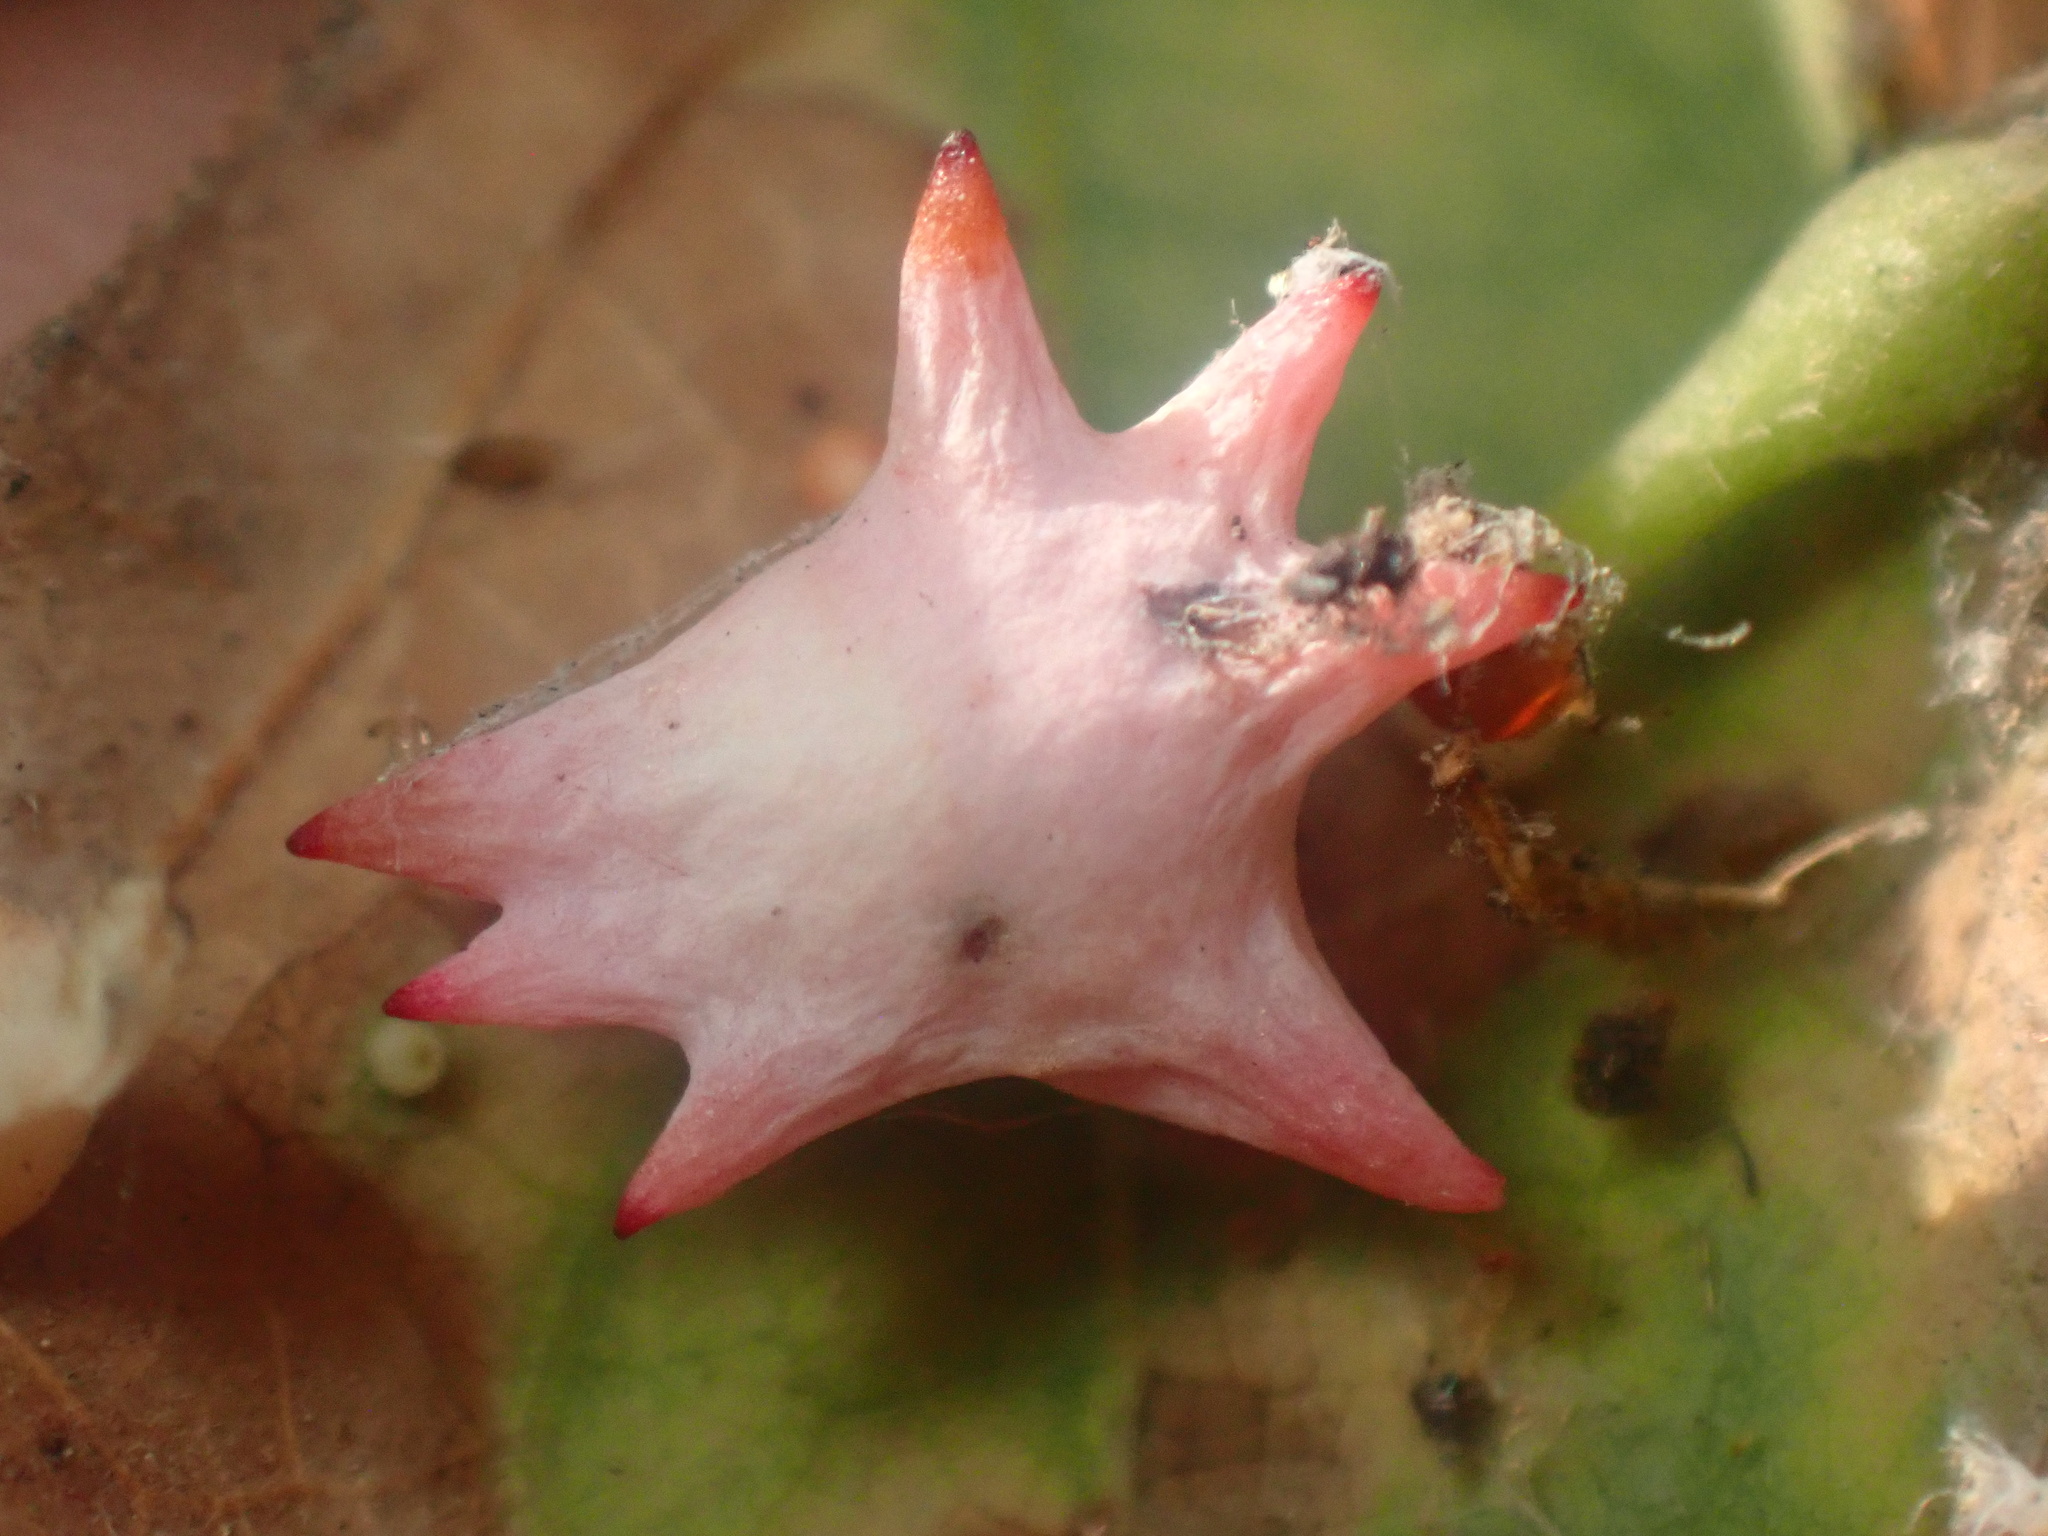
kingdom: Animalia
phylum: Arthropoda
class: Insecta
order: Hymenoptera
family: Cynipidae
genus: Cynips
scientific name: Cynips douglasi
